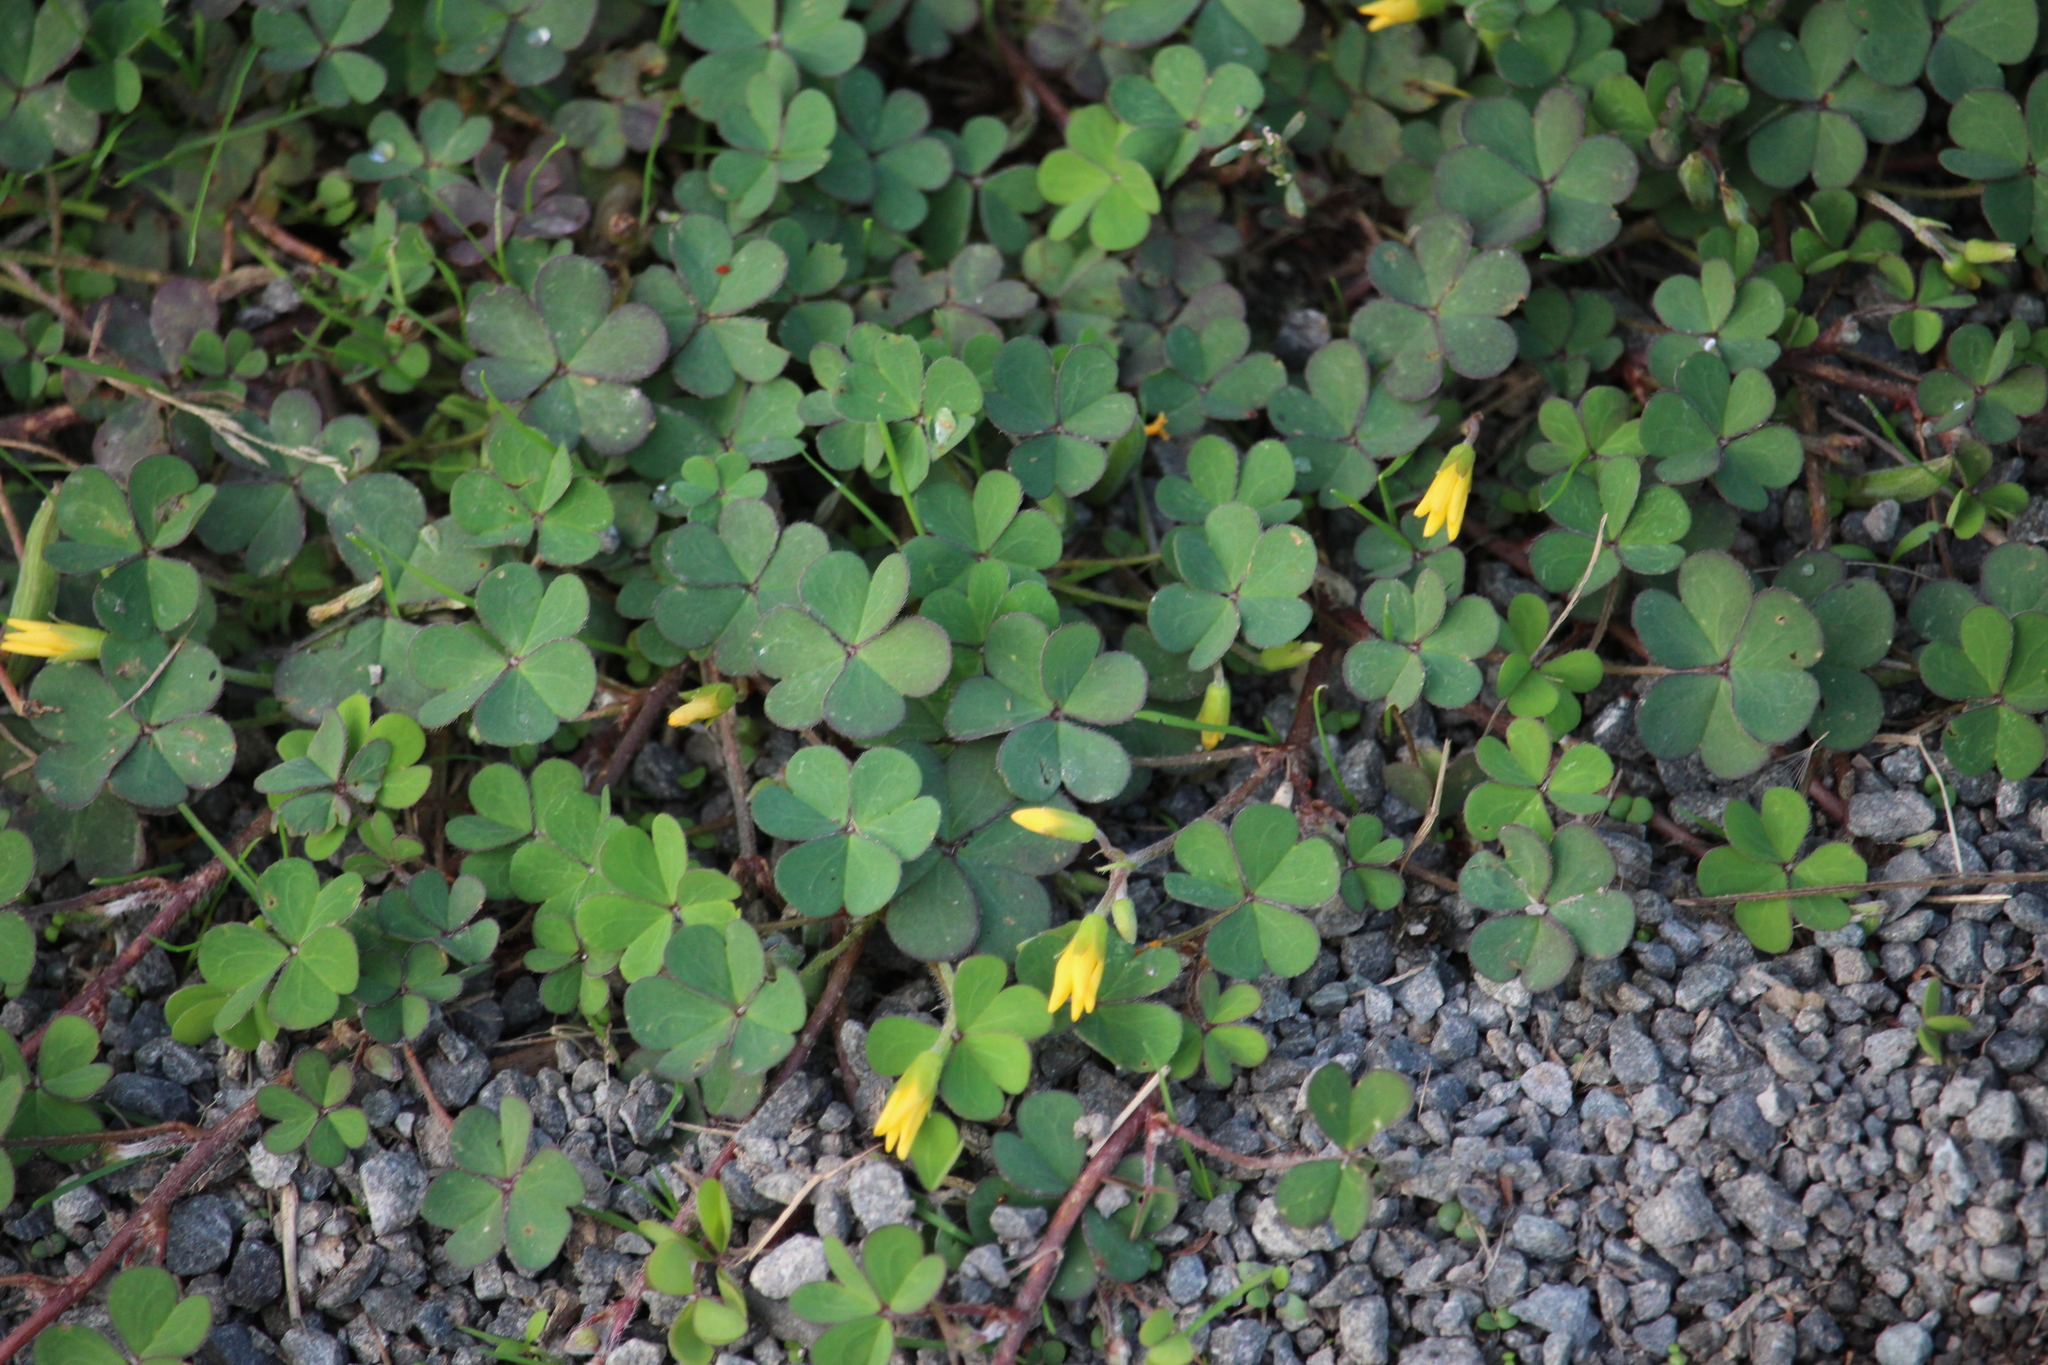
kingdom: Plantae
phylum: Tracheophyta
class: Magnoliopsida
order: Oxalidales
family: Oxalidaceae
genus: Oxalis
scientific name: Oxalis corniculata
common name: Procumbent yellow-sorrel
